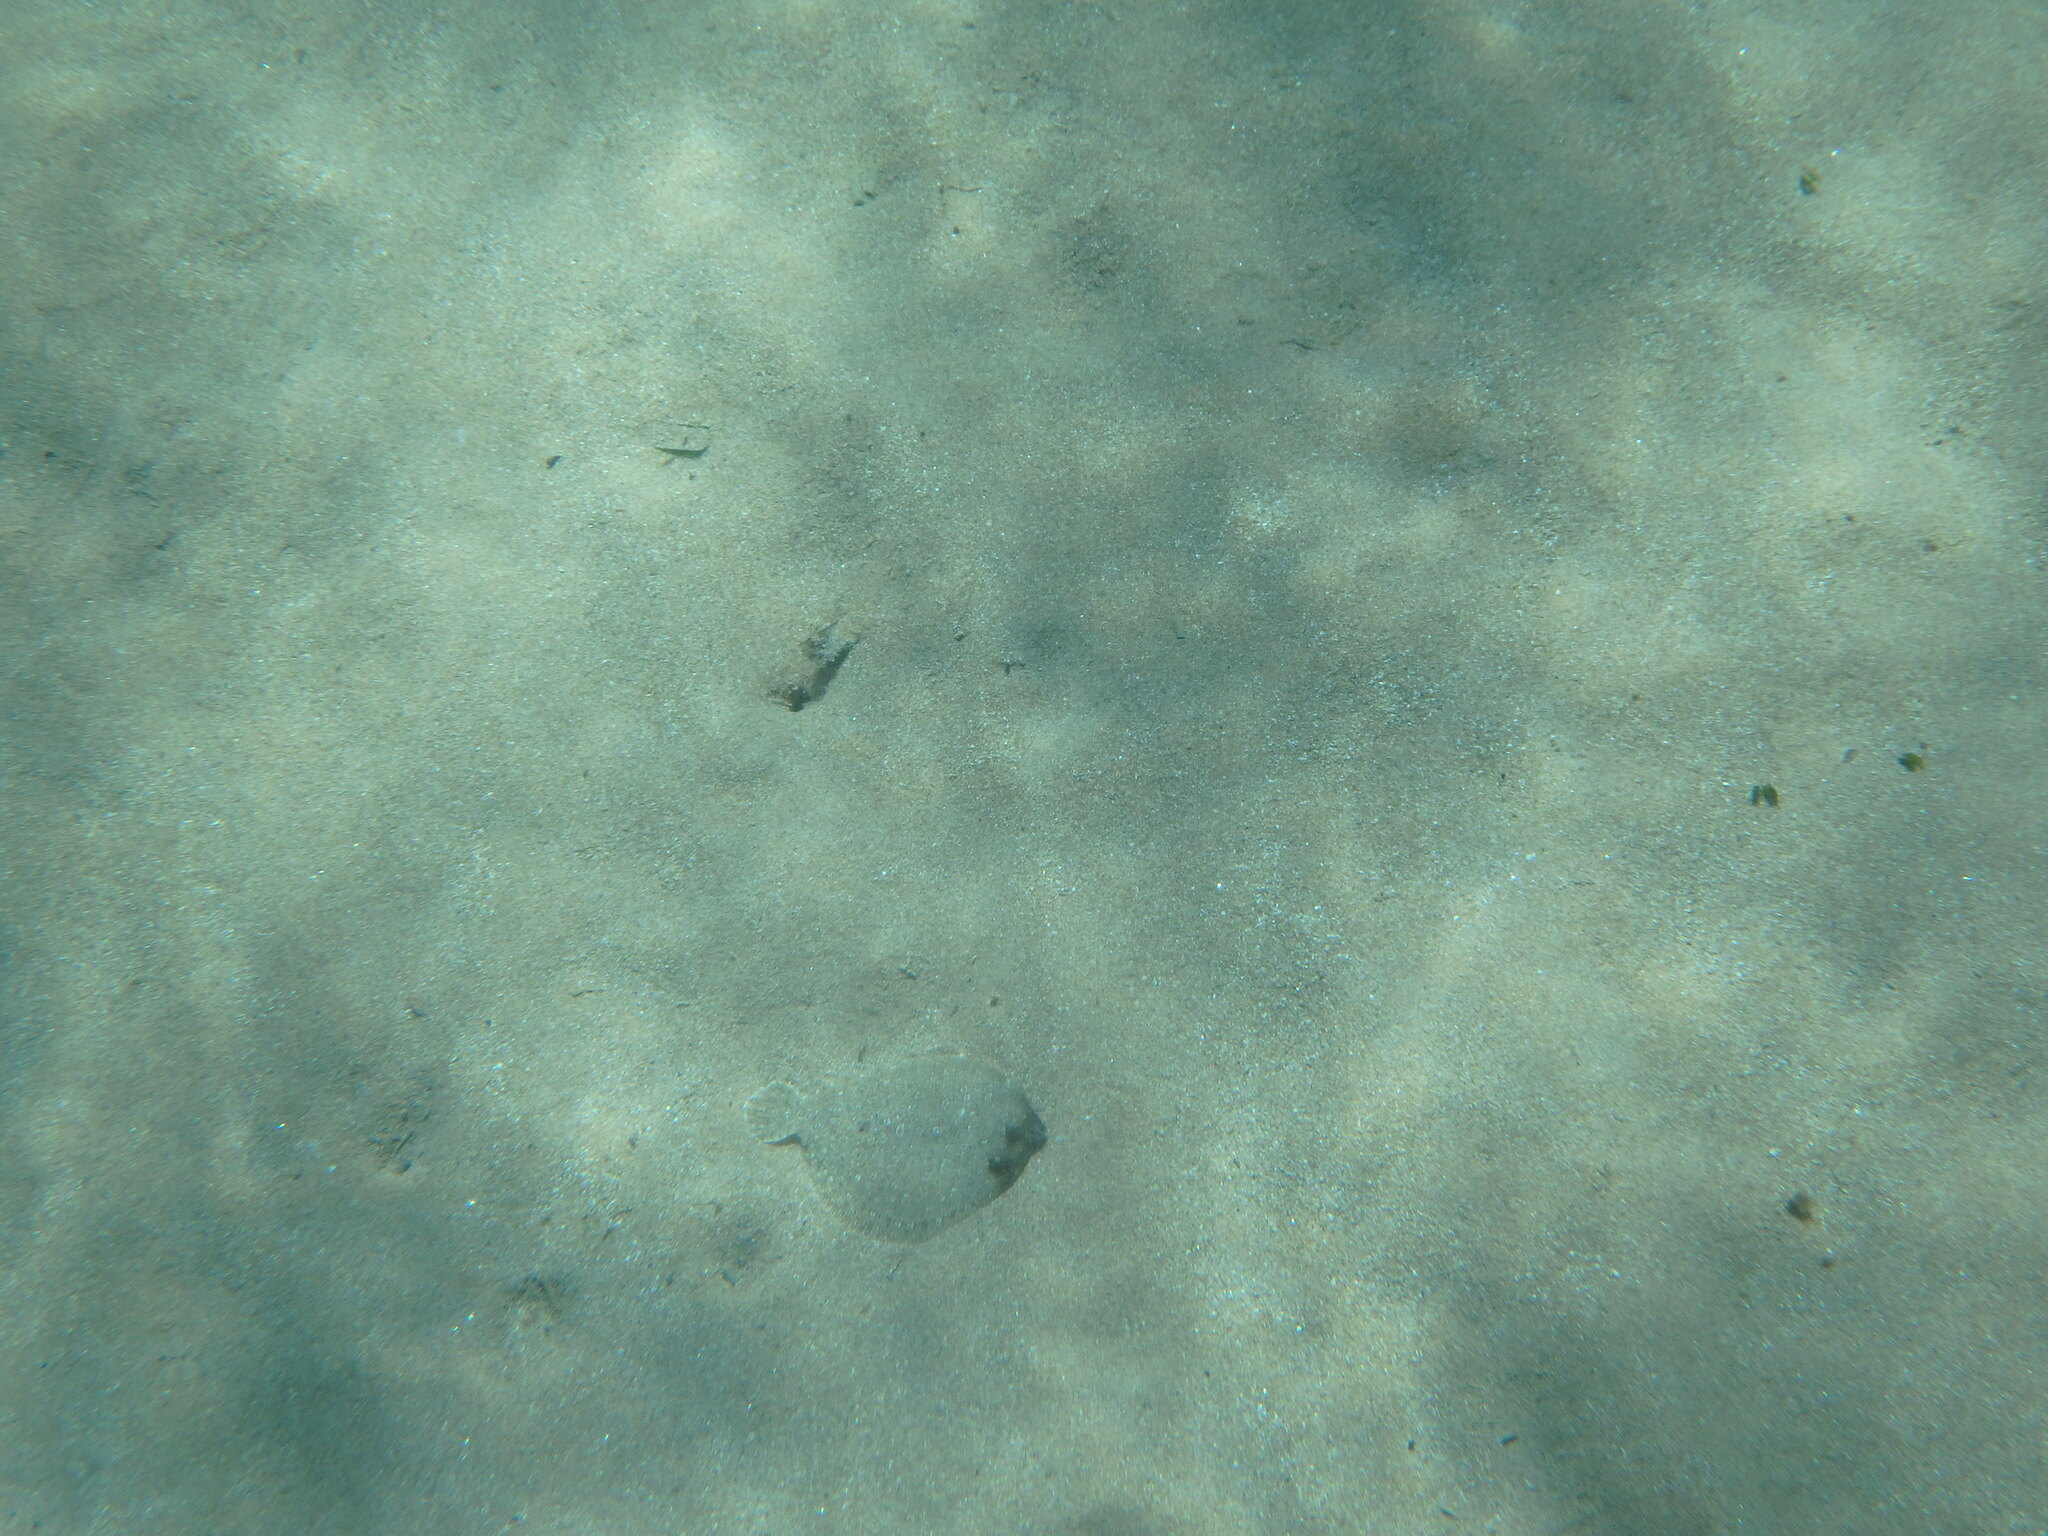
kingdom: Animalia
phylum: Chordata
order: Pleuronectiformes
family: Bothidae
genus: Bothus
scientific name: Bothus podas
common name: Wide-eyed flounder
